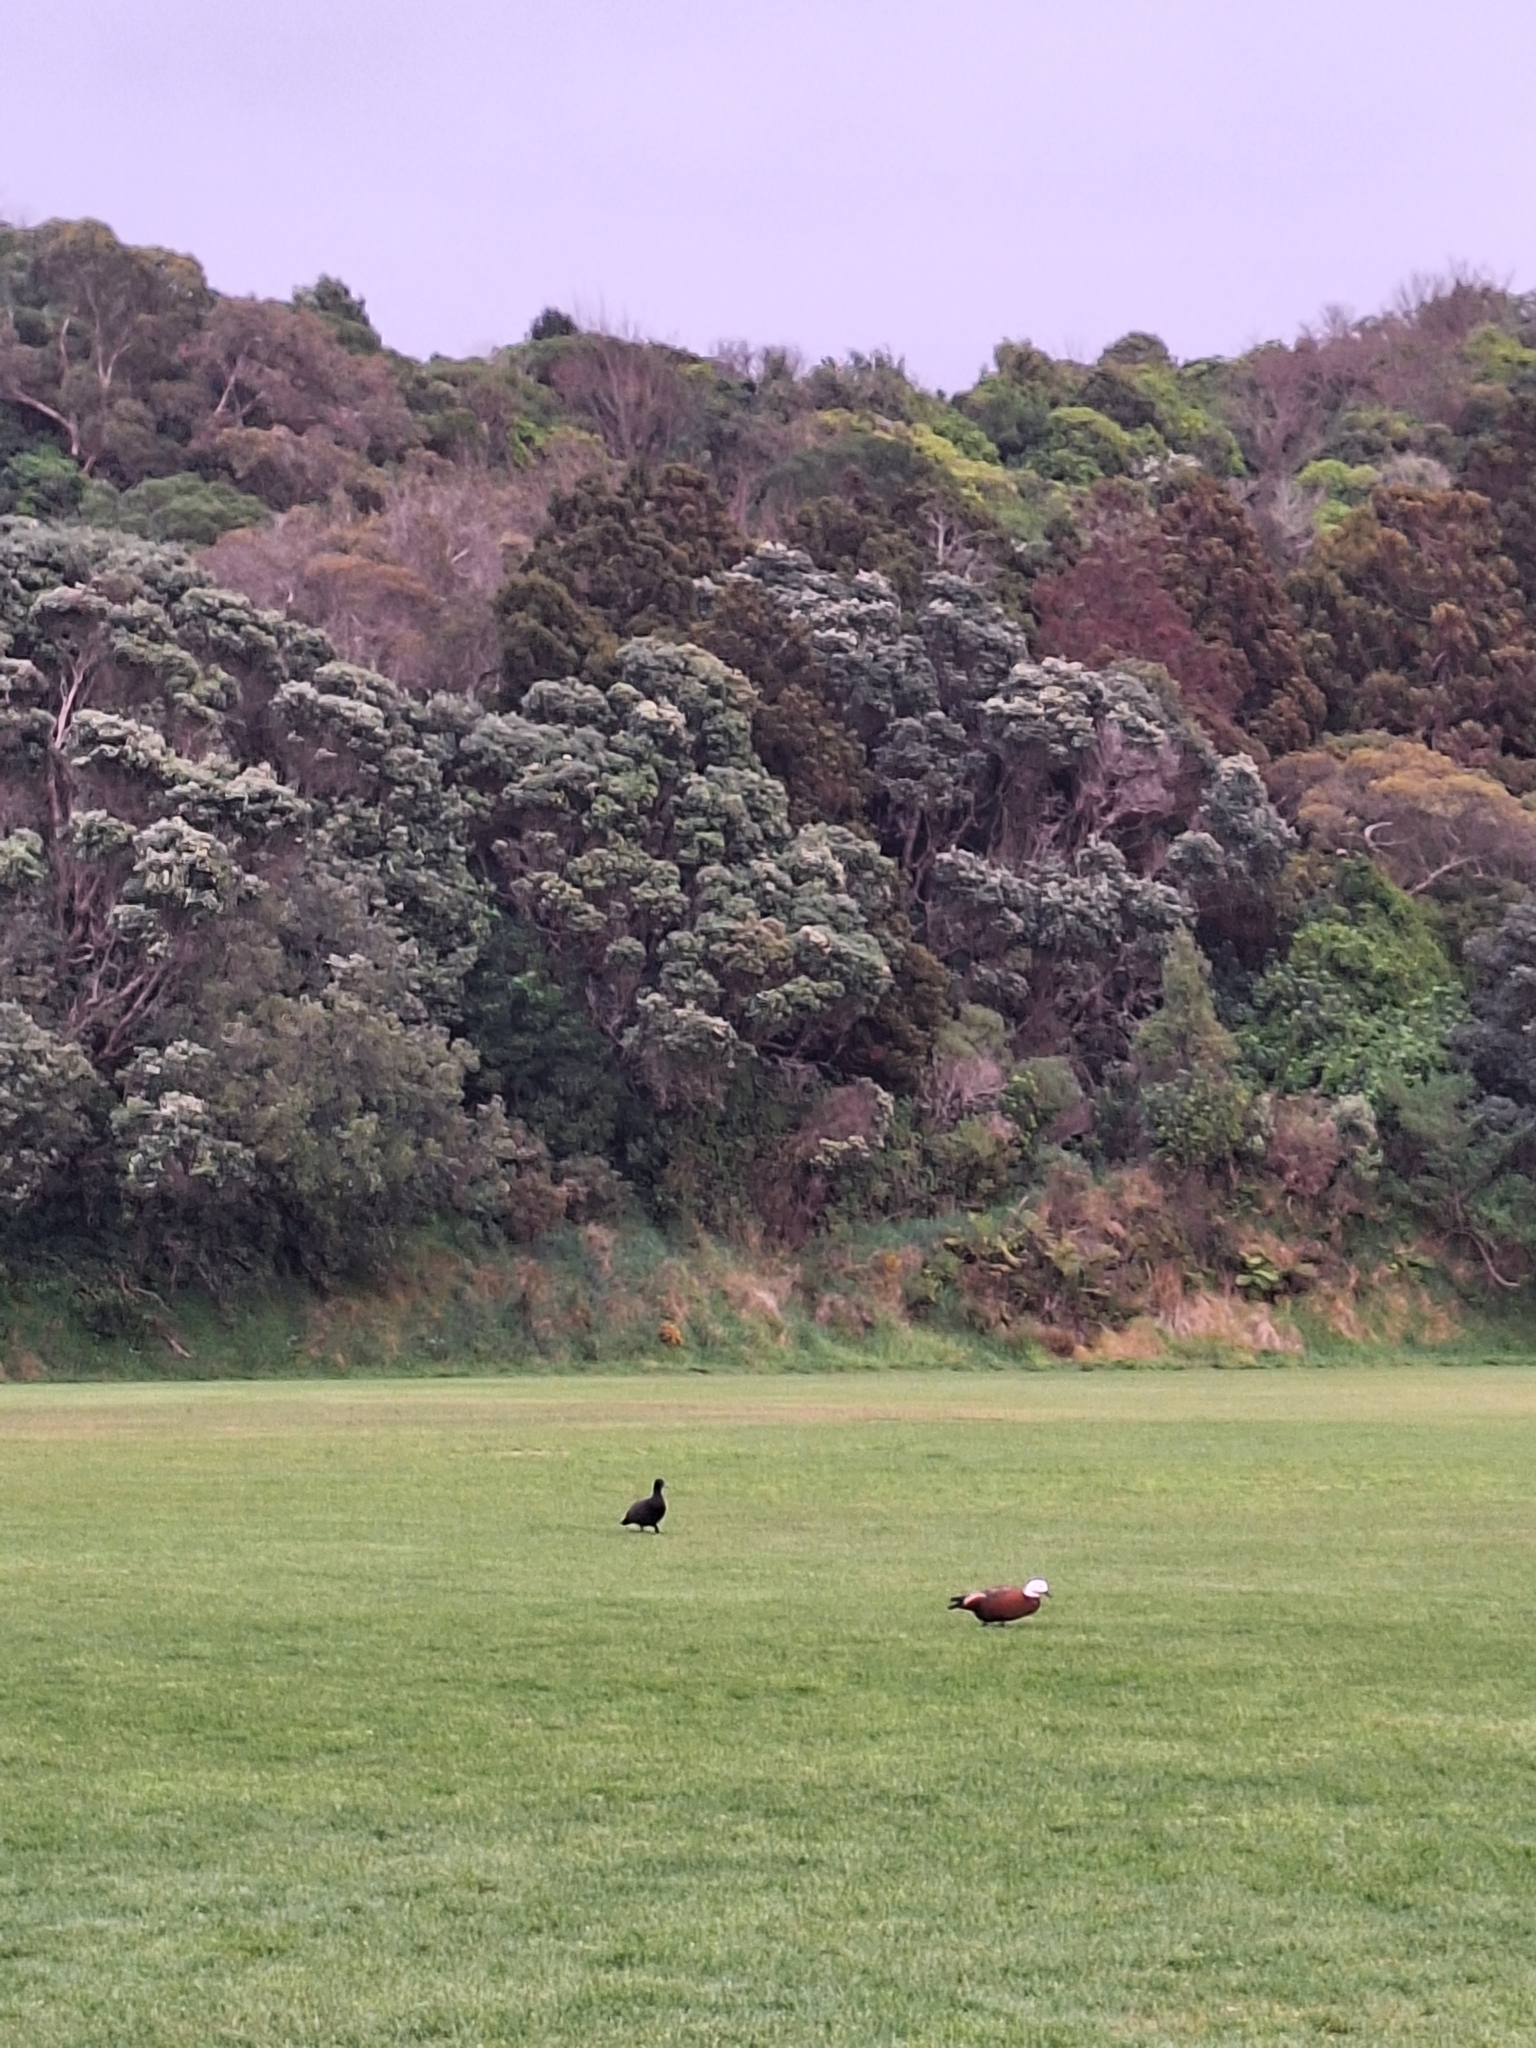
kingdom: Animalia
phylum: Chordata
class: Aves
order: Anseriformes
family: Anatidae
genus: Tadorna
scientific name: Tadorna variegata
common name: Paradise shelduck
